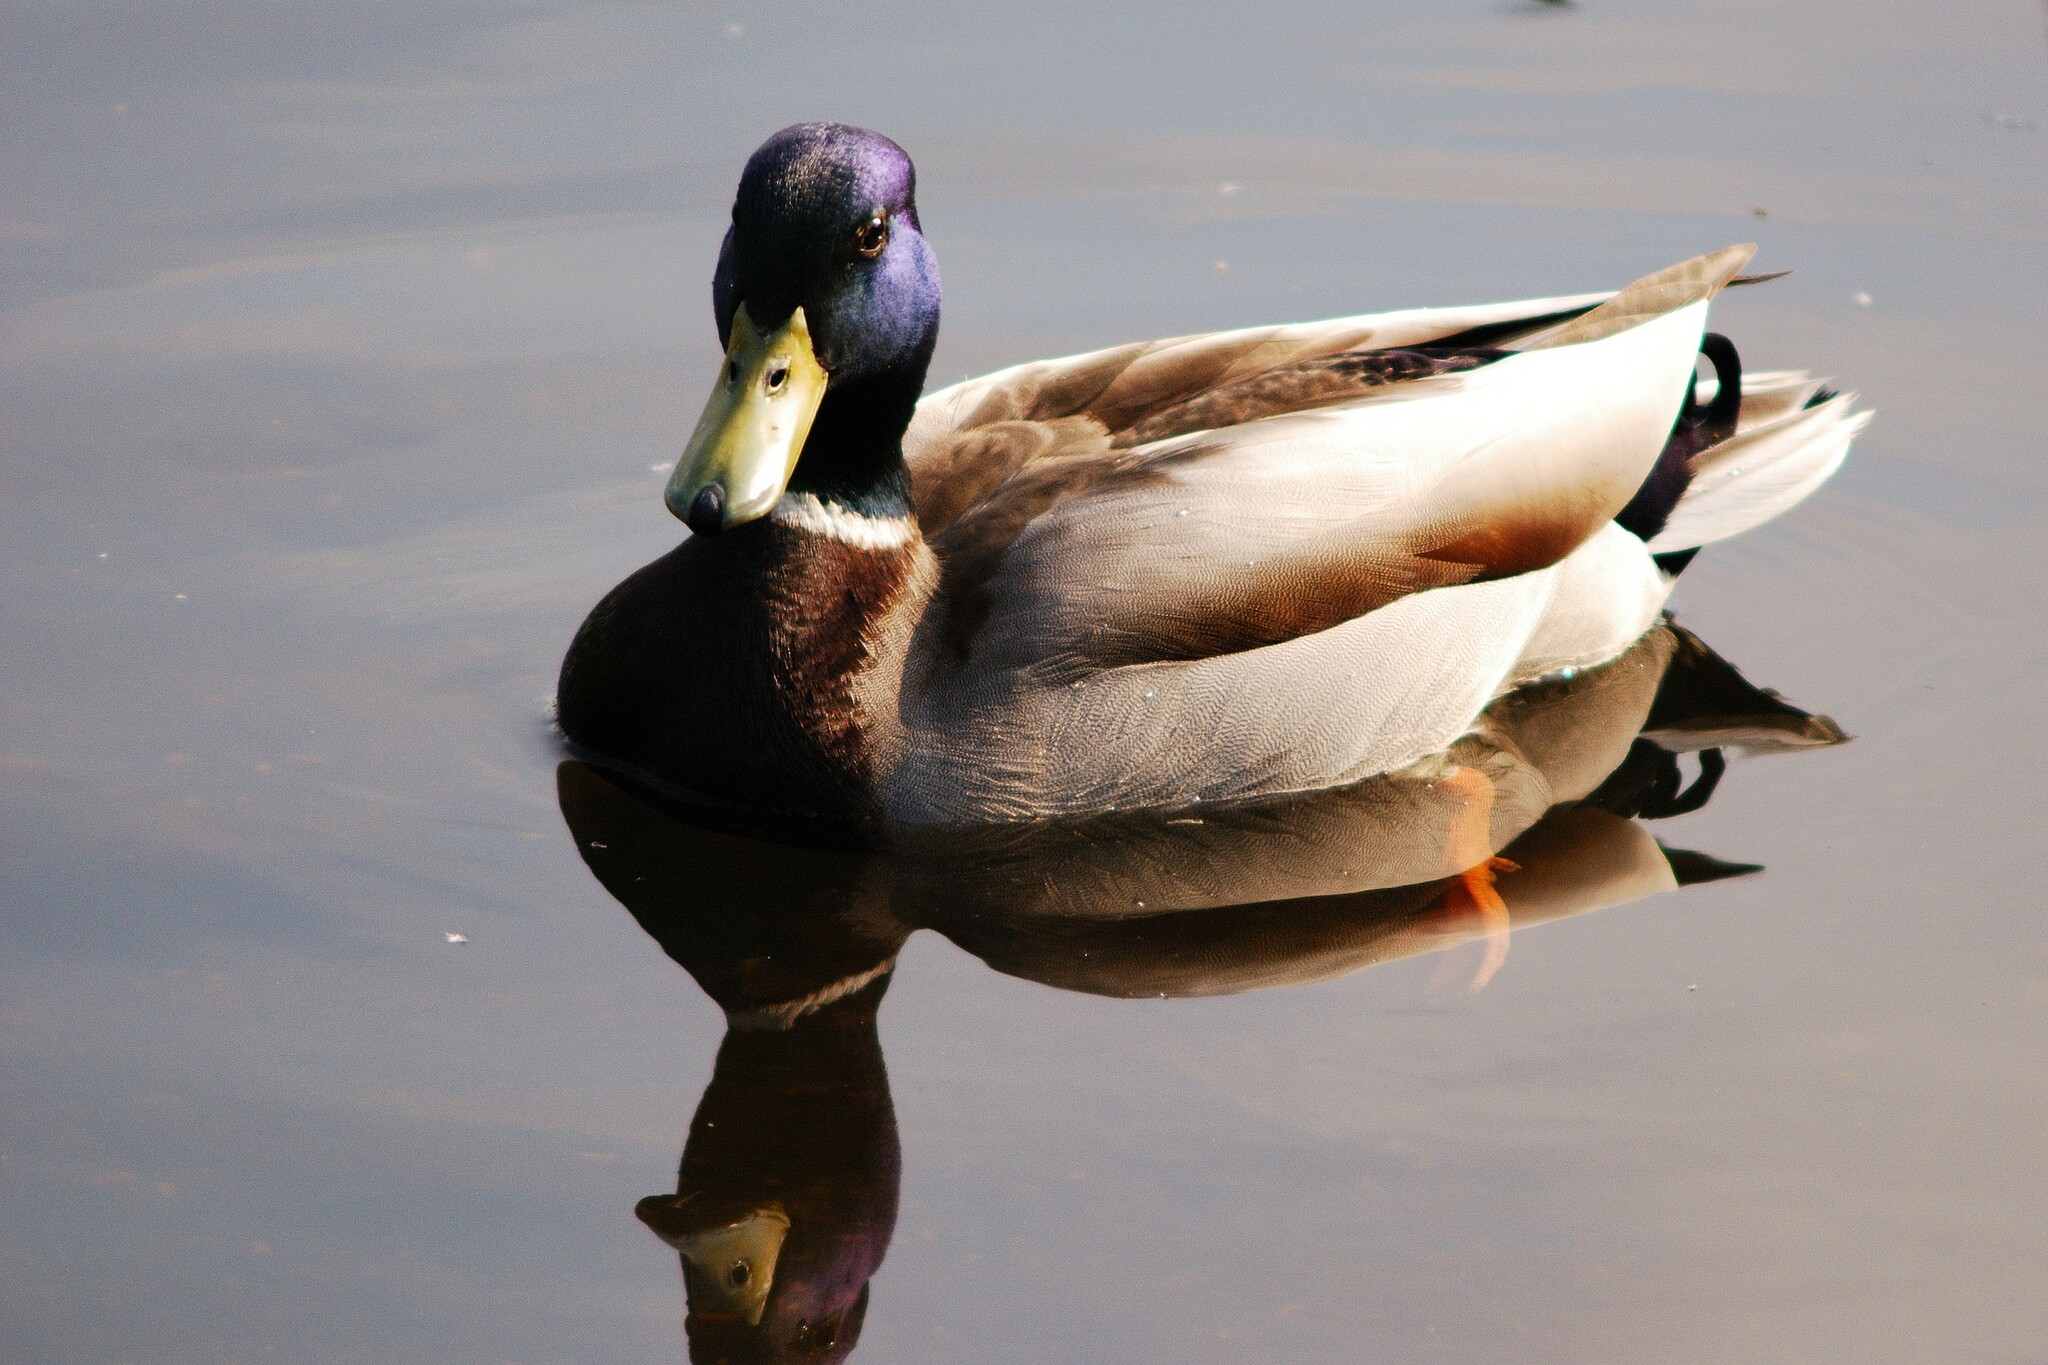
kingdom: Animalia
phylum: Chordata
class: Aves
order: Anseriformes
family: Anatidae
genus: Anas
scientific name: Anas platyrhynchos
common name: Mallard
